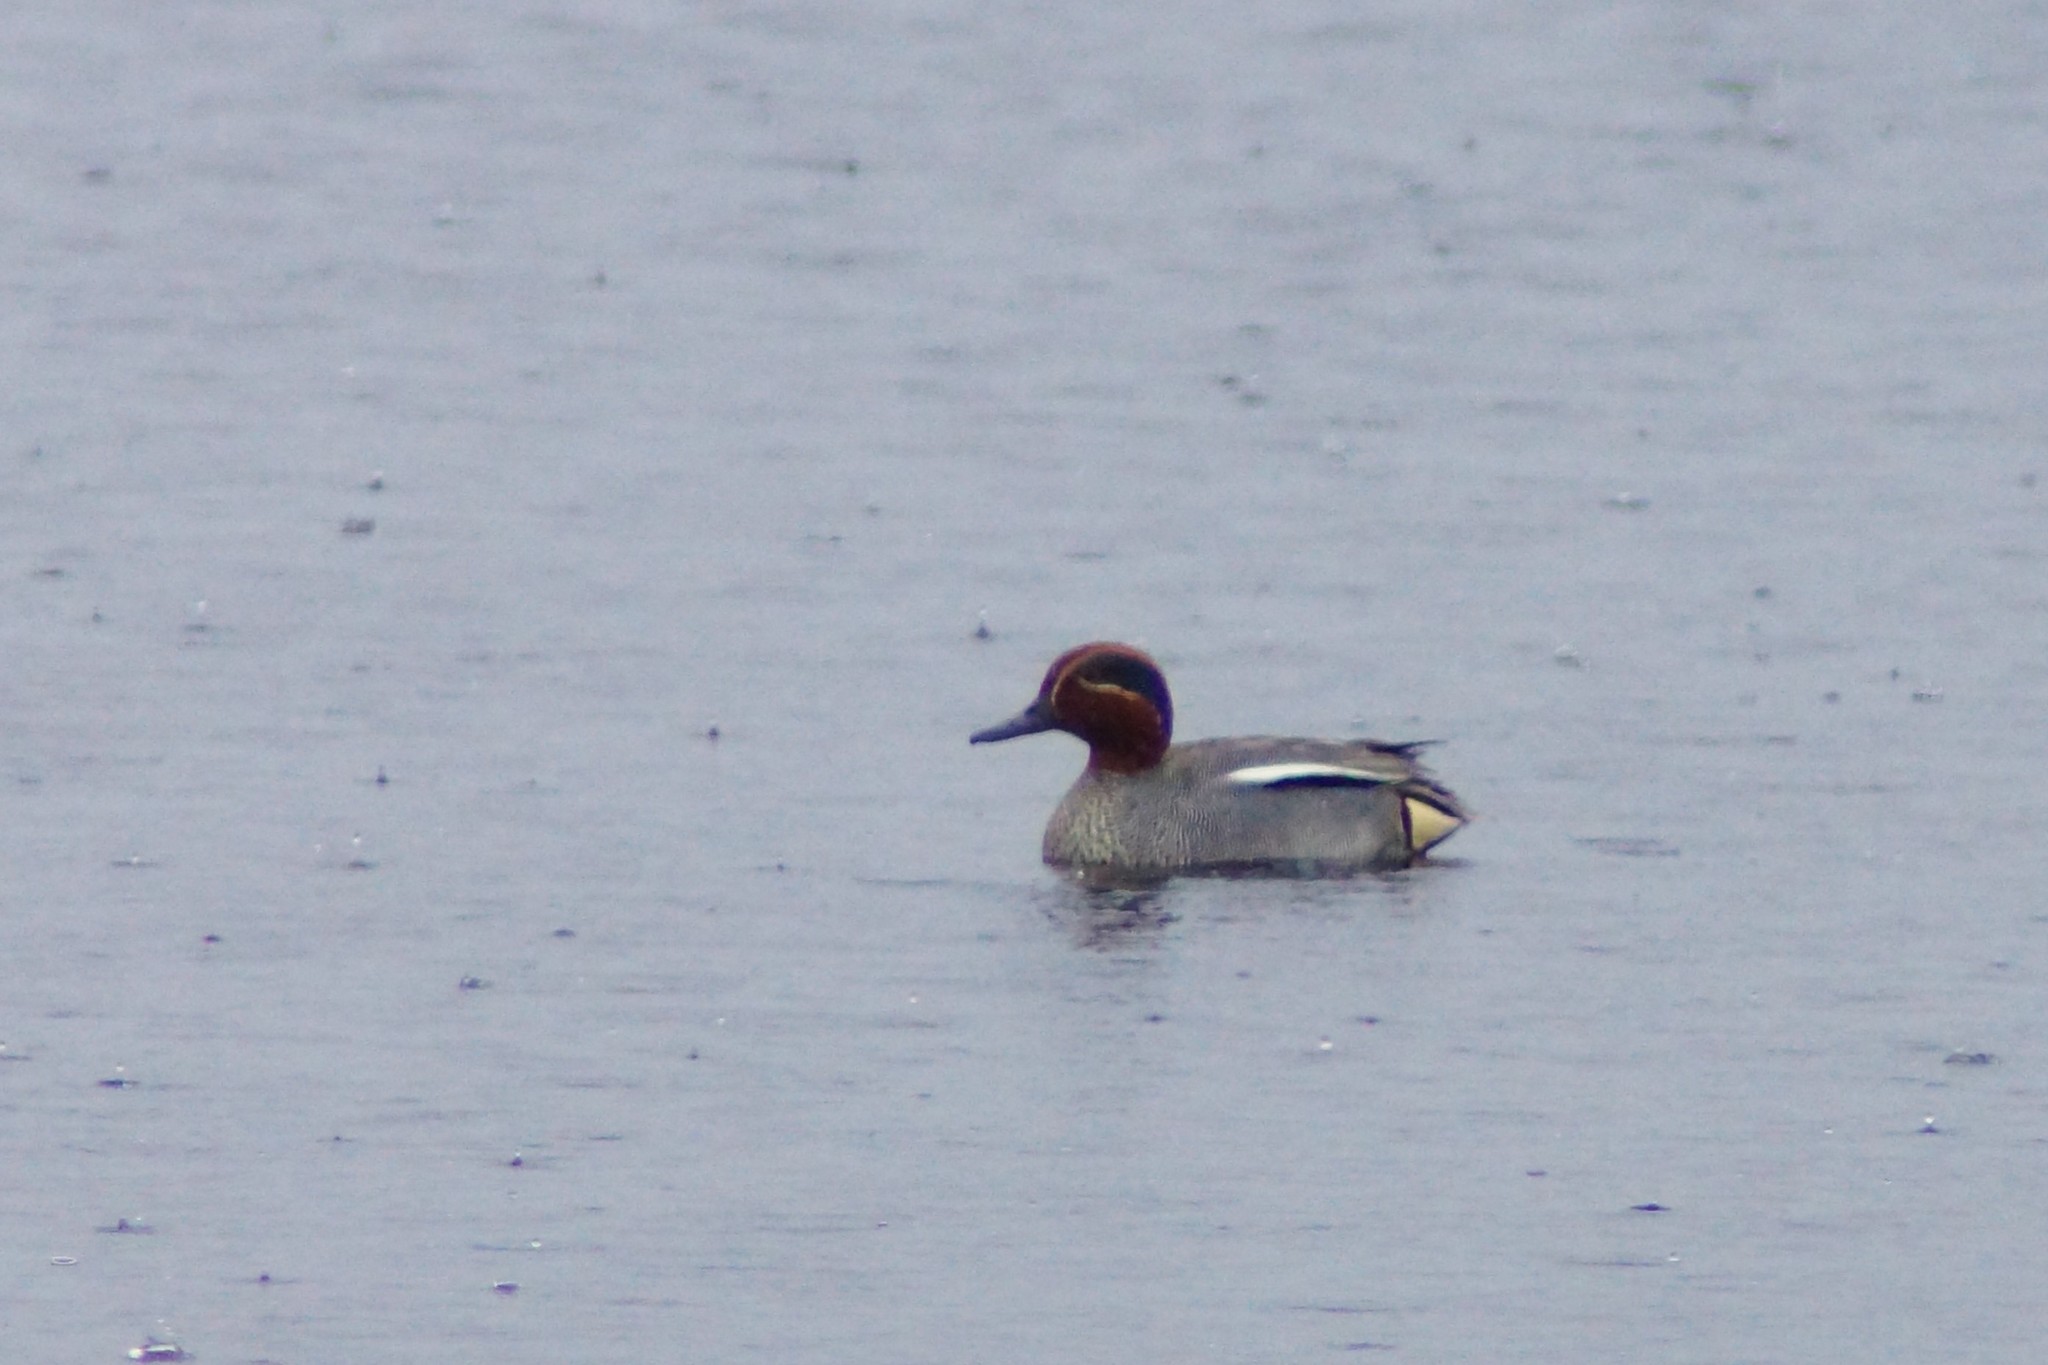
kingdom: Animalia
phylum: Chordata
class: Aves
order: Anseriformes
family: Anatidae
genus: Anas
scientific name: Anas crecca
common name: Eurasian teal
